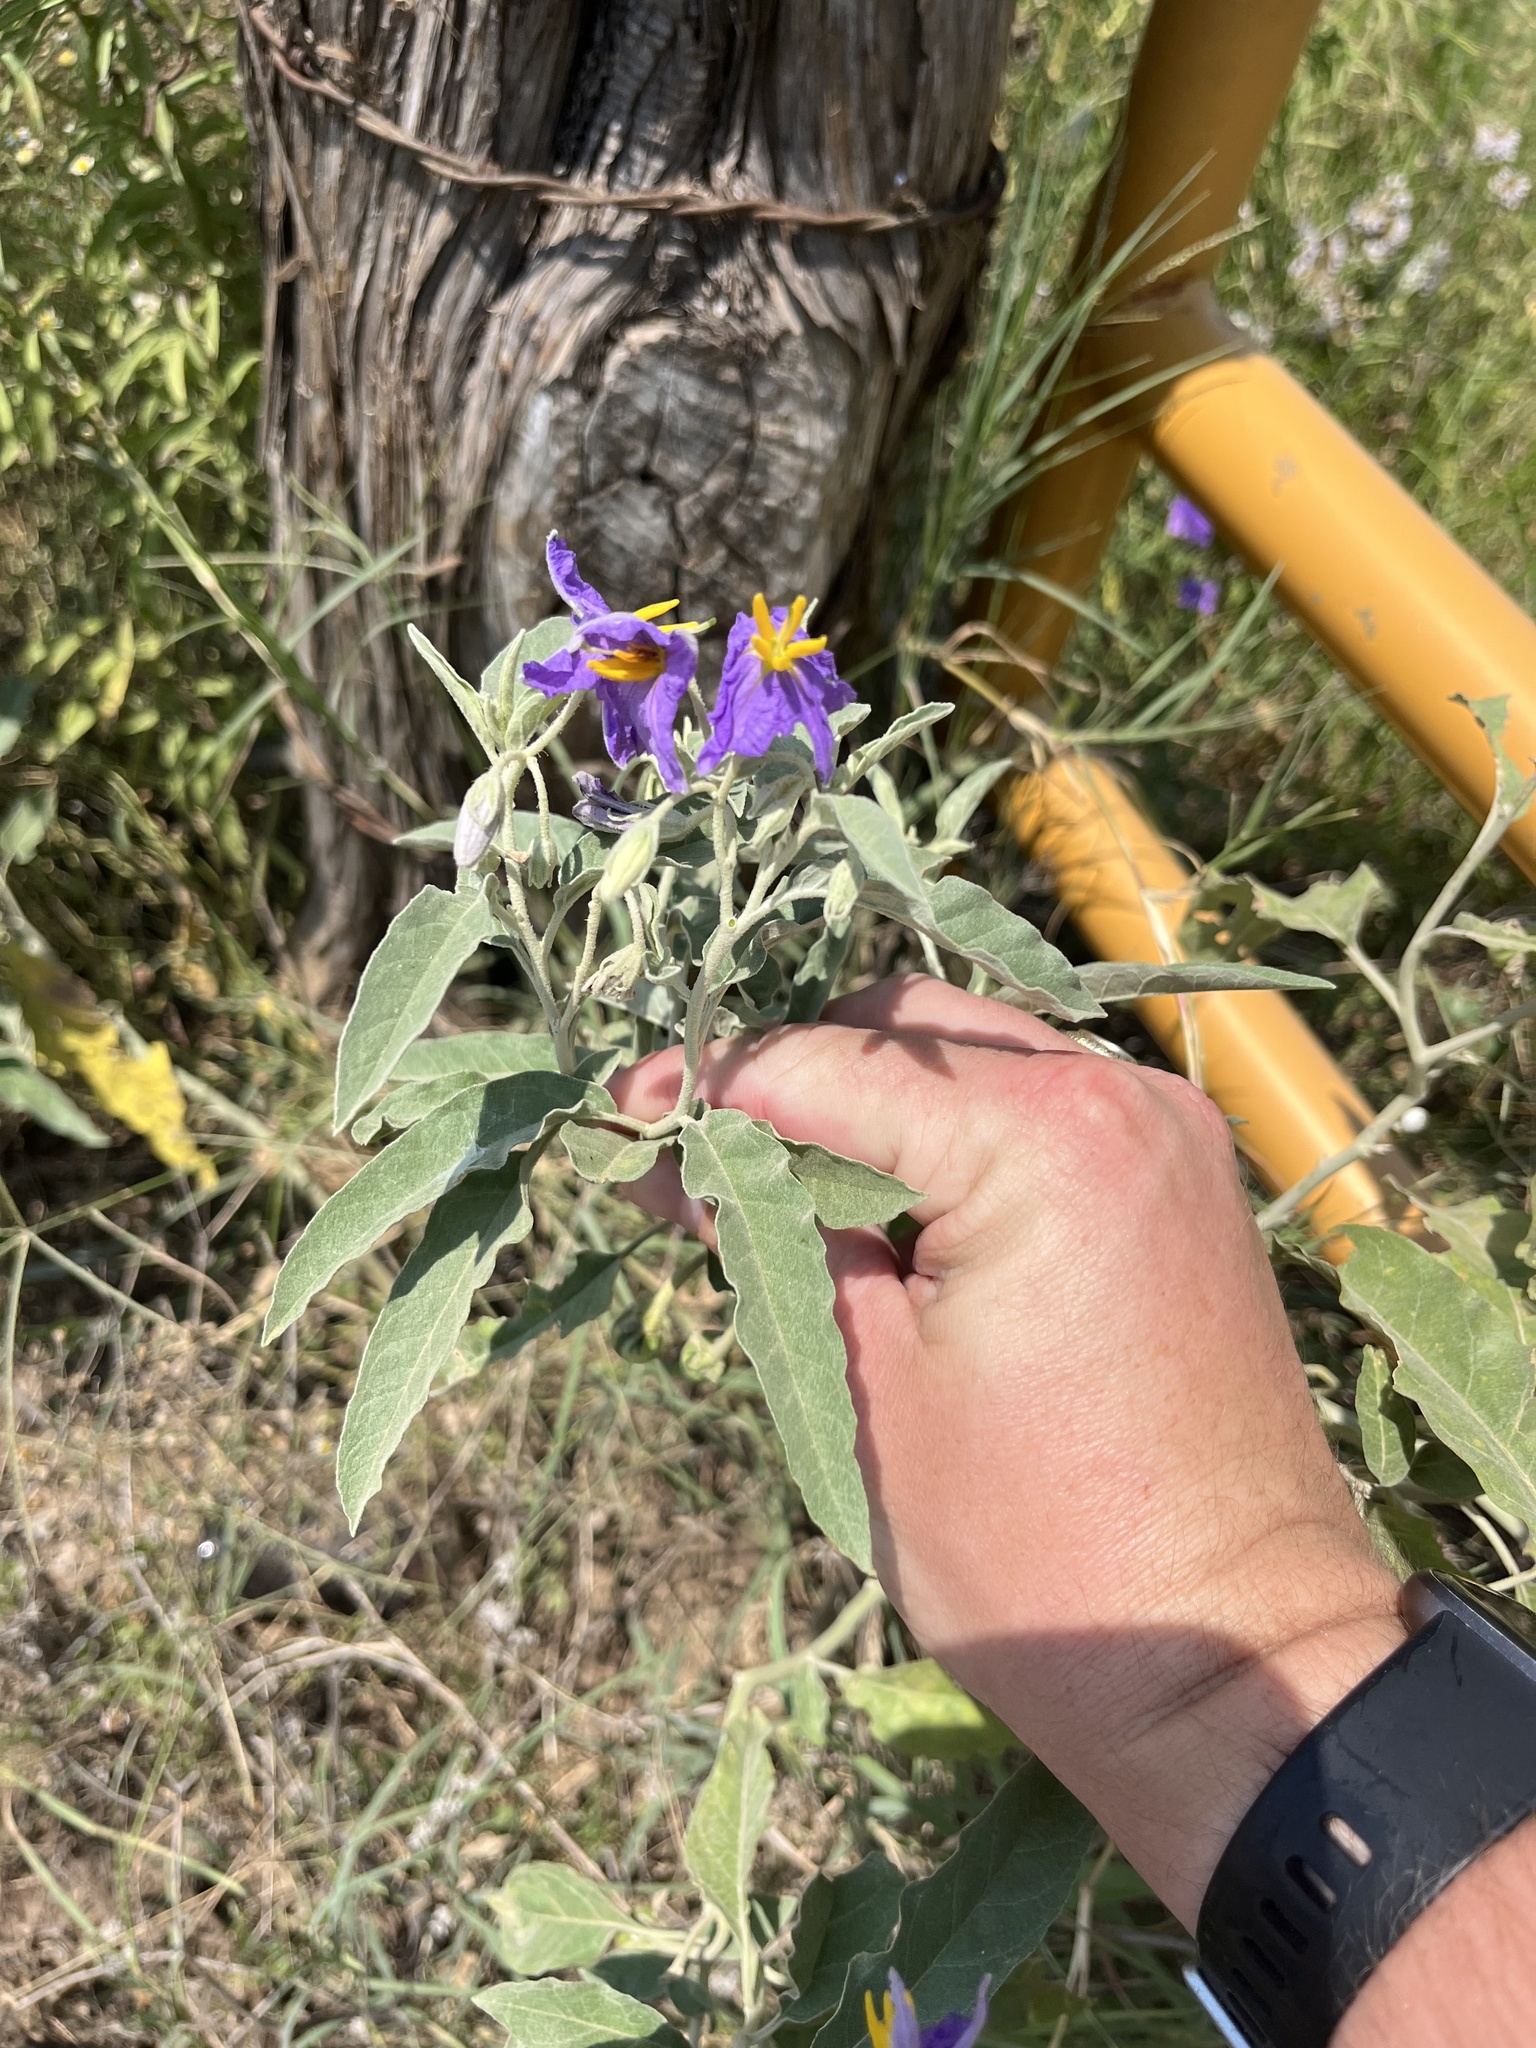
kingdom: Plantae
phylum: Tracheophyta
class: Magnoliopsida
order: Solanales
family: Solanaceae
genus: Solanum
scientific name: Solanum elaeagnifolium
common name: Silverleaf nightshade
